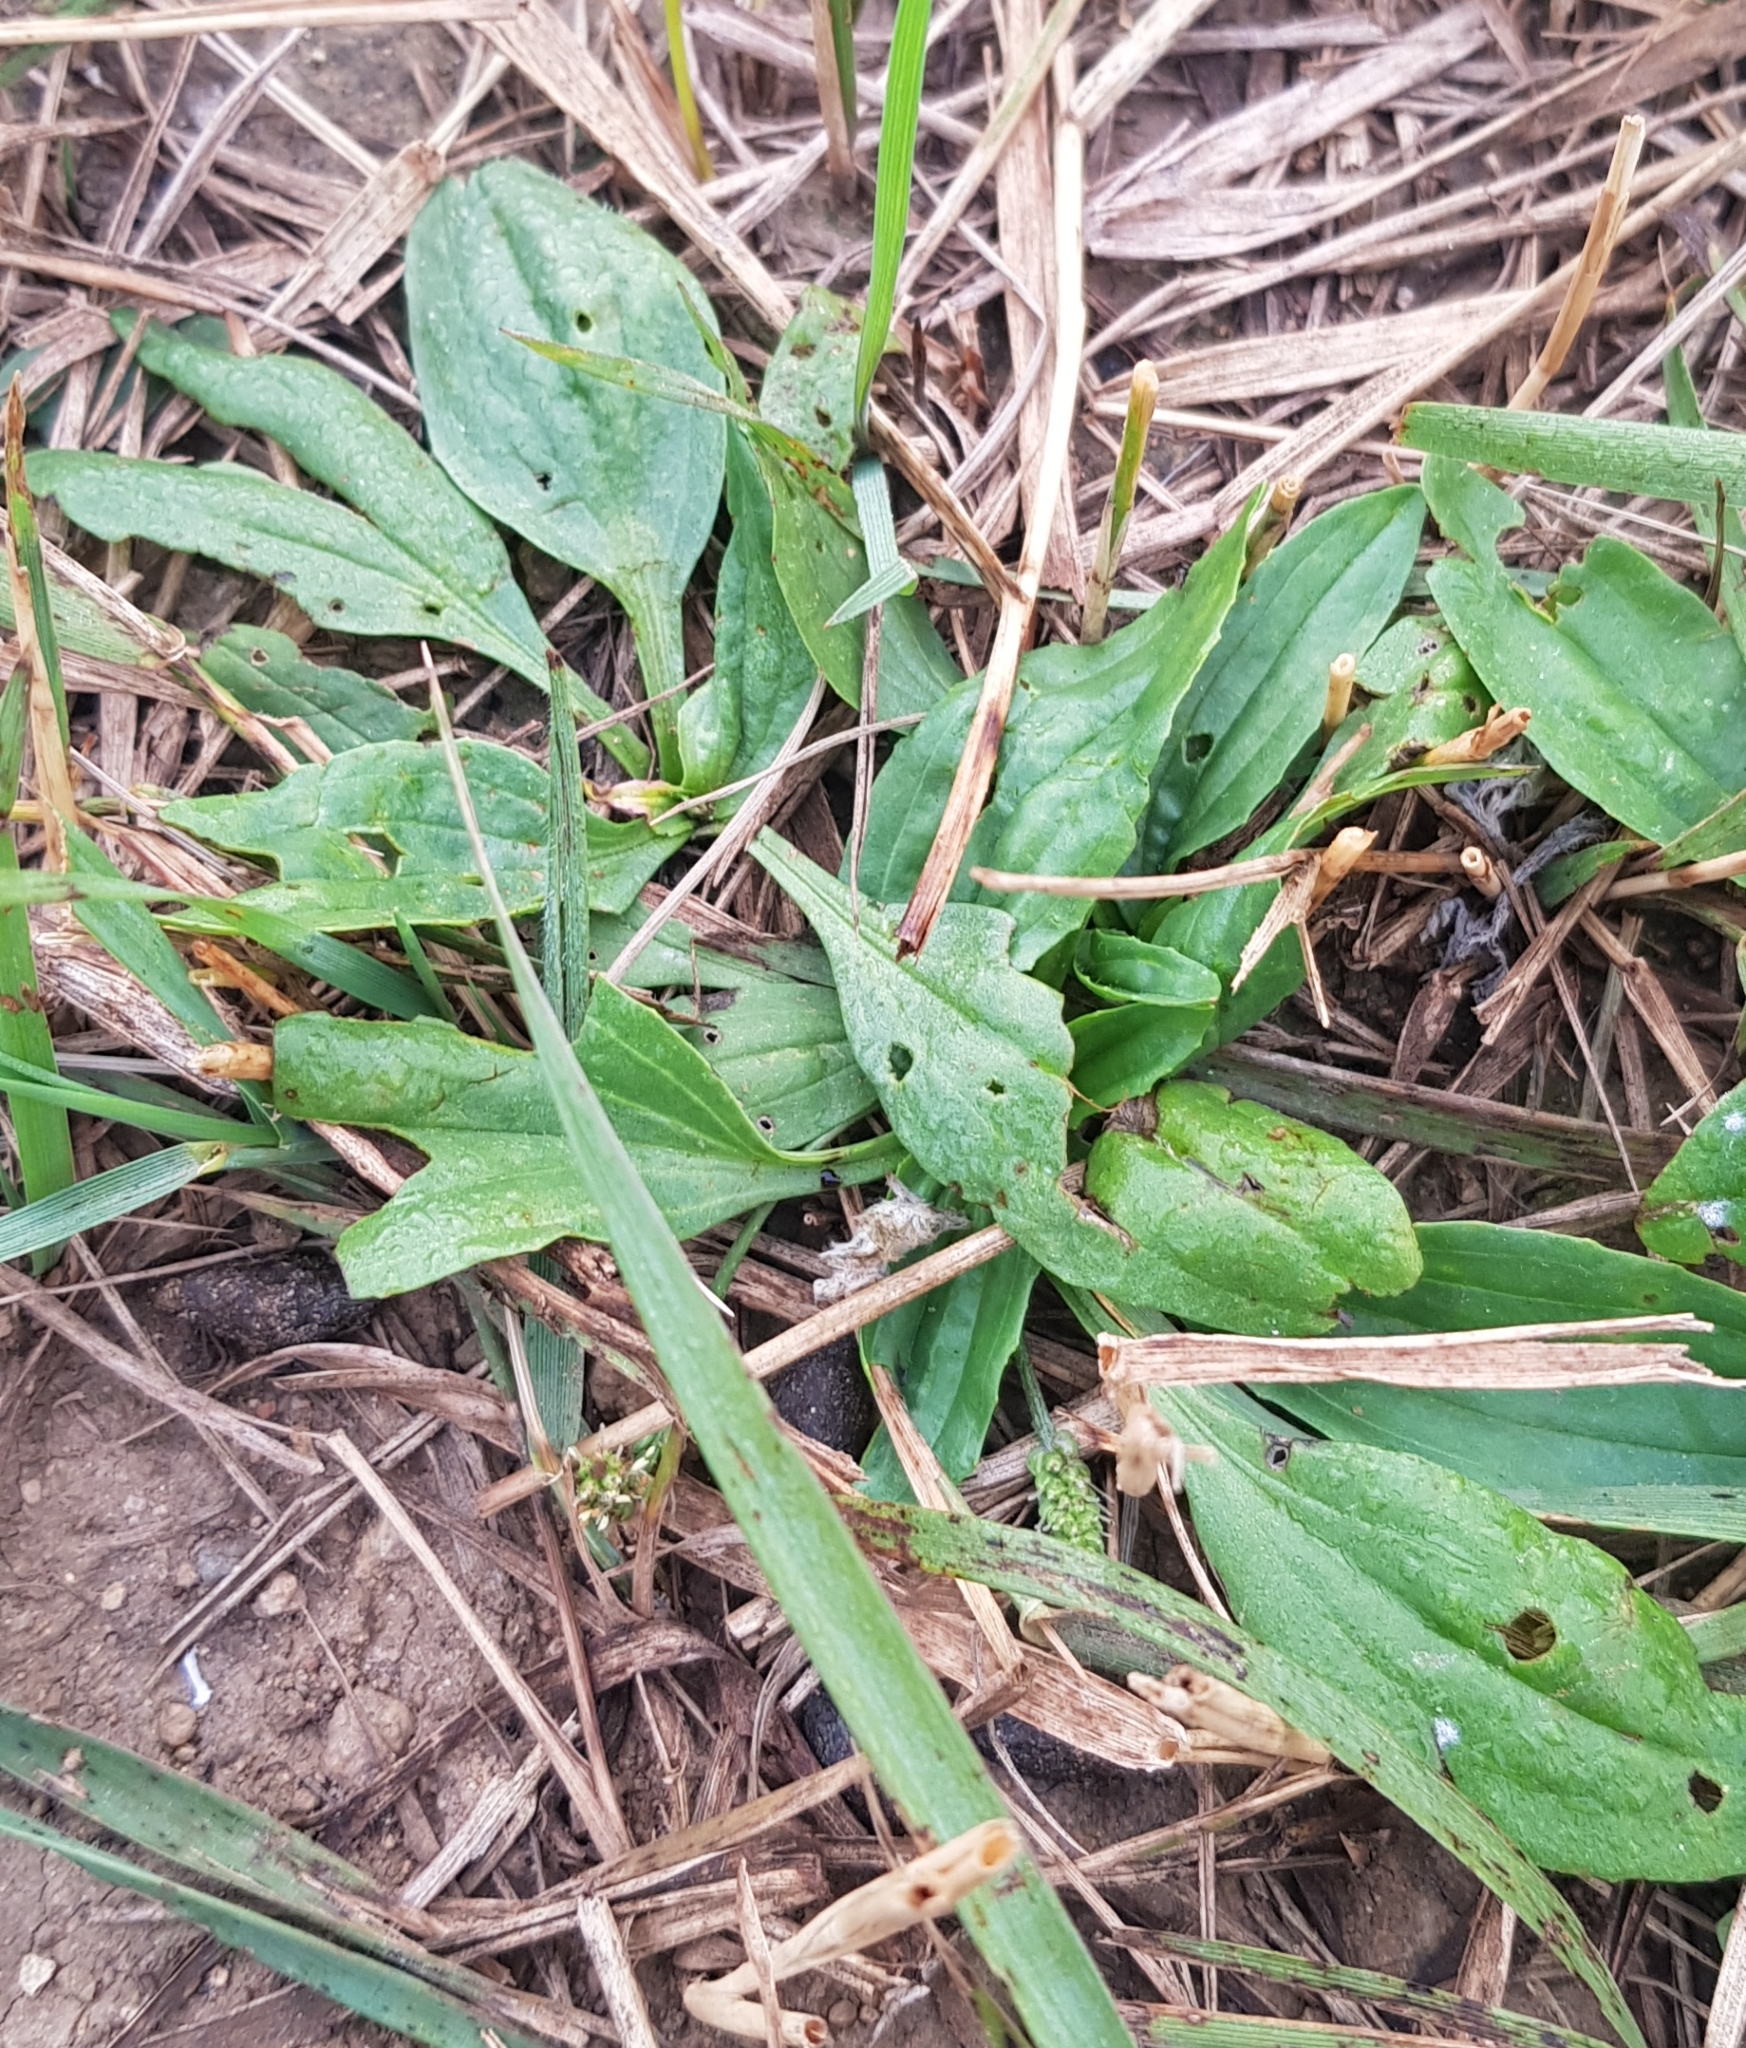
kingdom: Plantae
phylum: Tracheophyta
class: Magnoliopsida
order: Lamiales
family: Plantaginaceae
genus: Plantago
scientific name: Plantago depressa
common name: Depressed plantain
